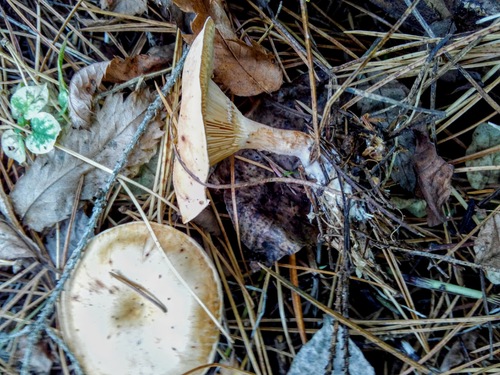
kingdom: Fungi
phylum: Basidiomycota
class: Agaricomycetes
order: Agaricales
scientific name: Agaricales
